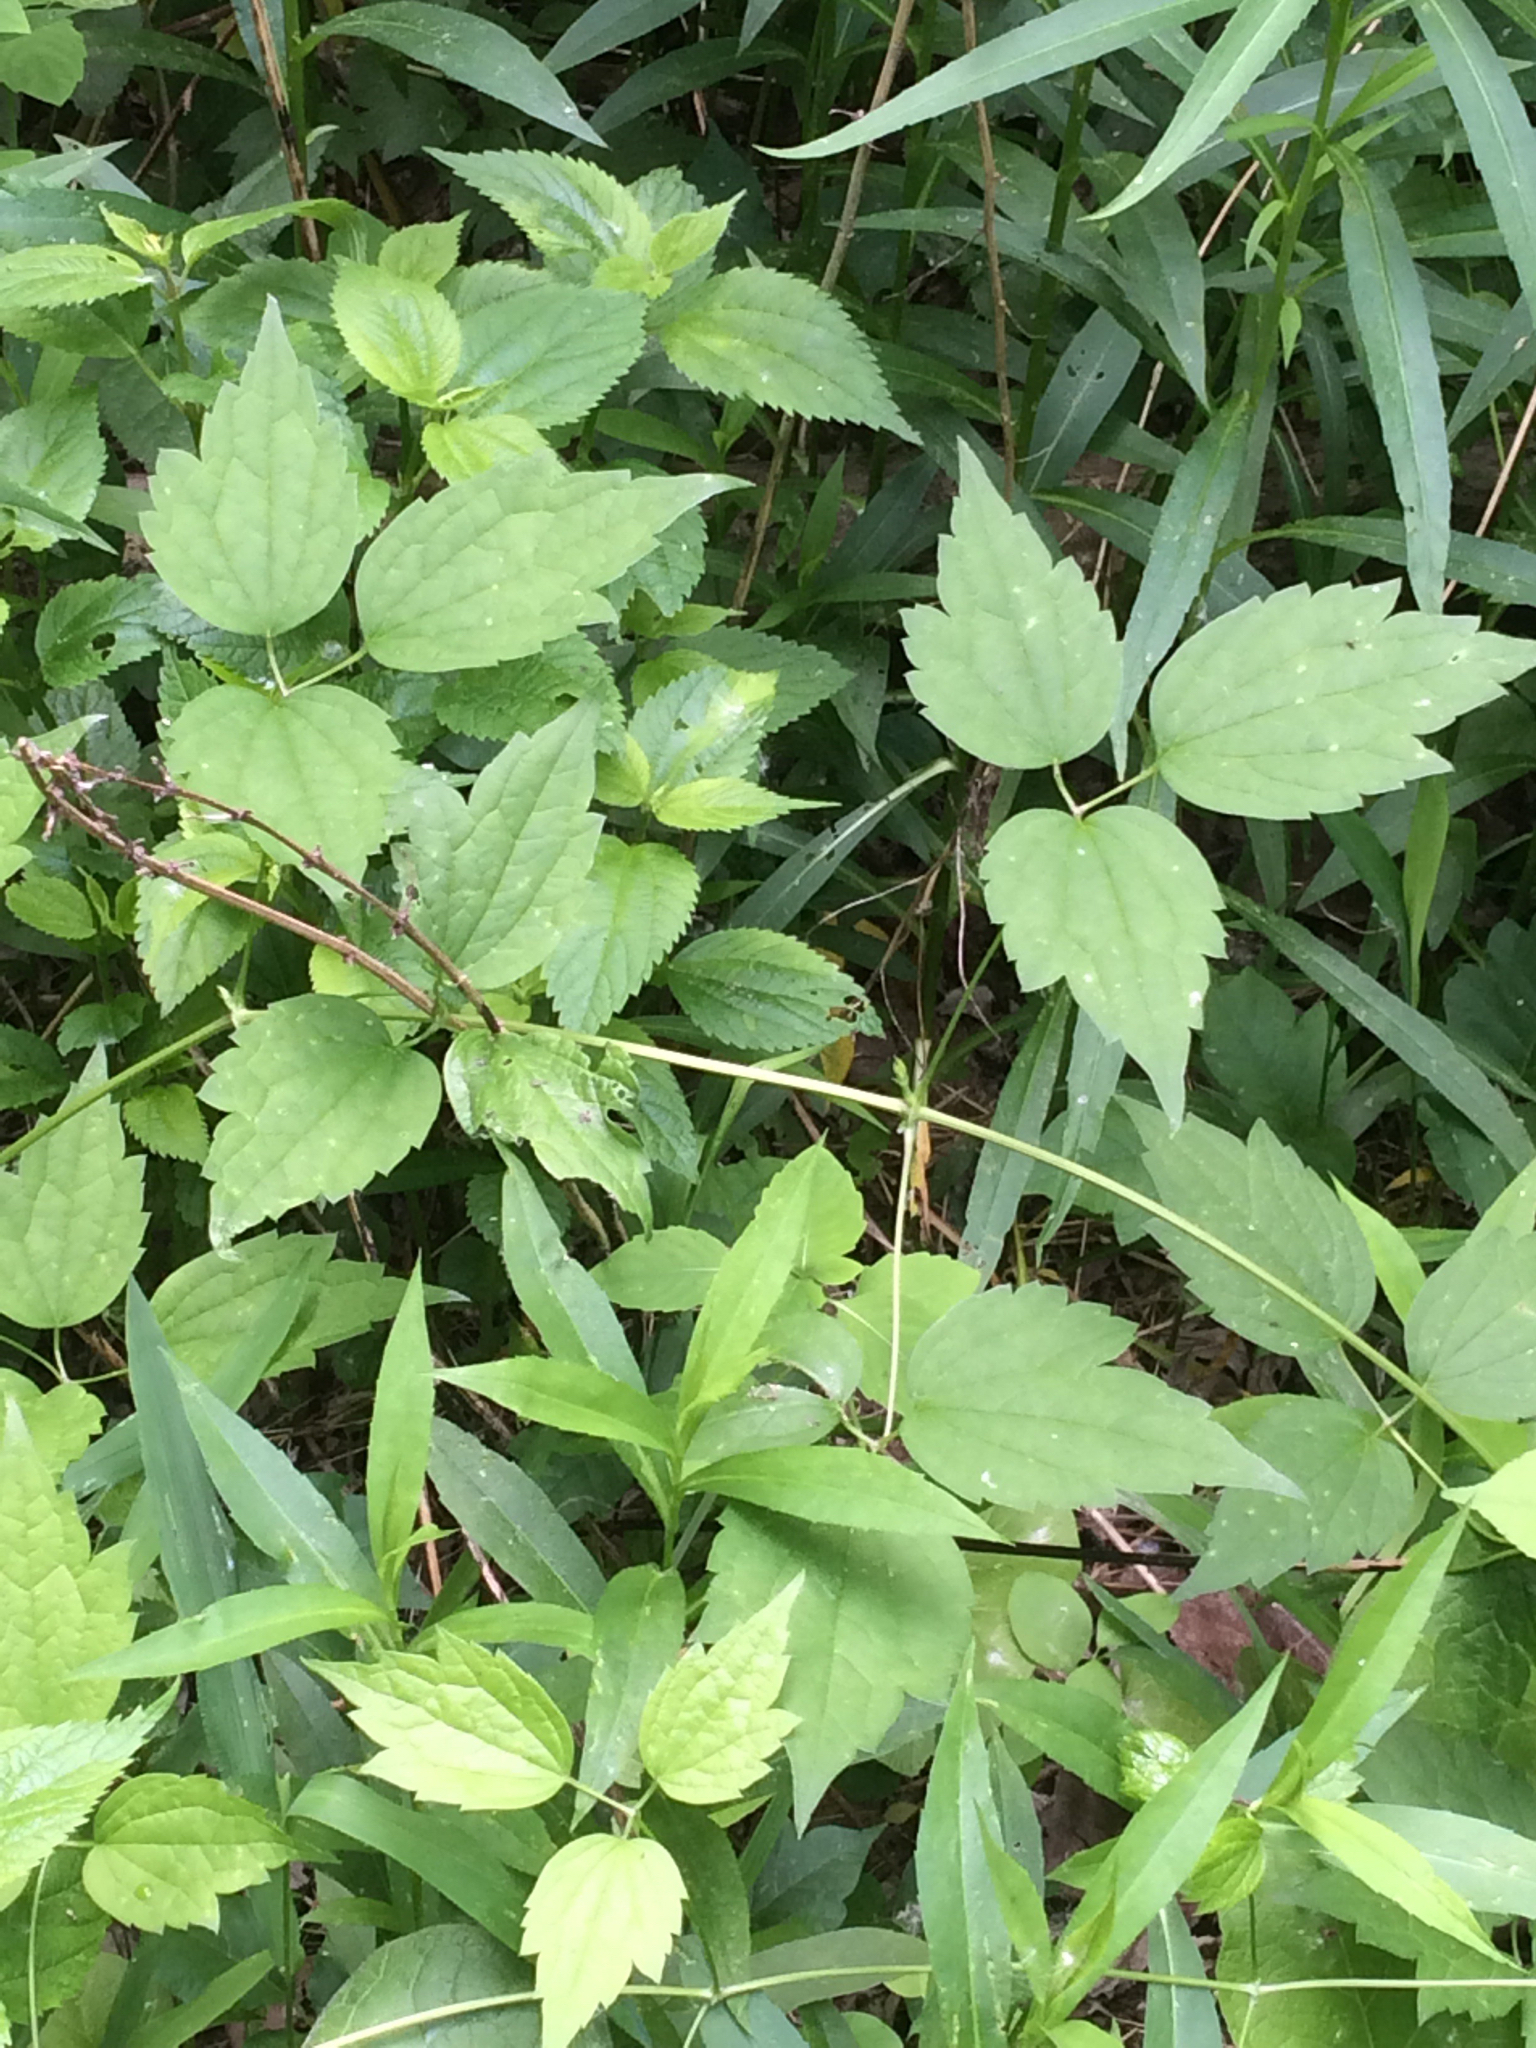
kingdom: Plantae
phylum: Tracheophyta
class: Magnoliopsida
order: Ranunculales
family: Ranunculaceae
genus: Clematis
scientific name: Clematis virginiana
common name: Virgin's-bower
